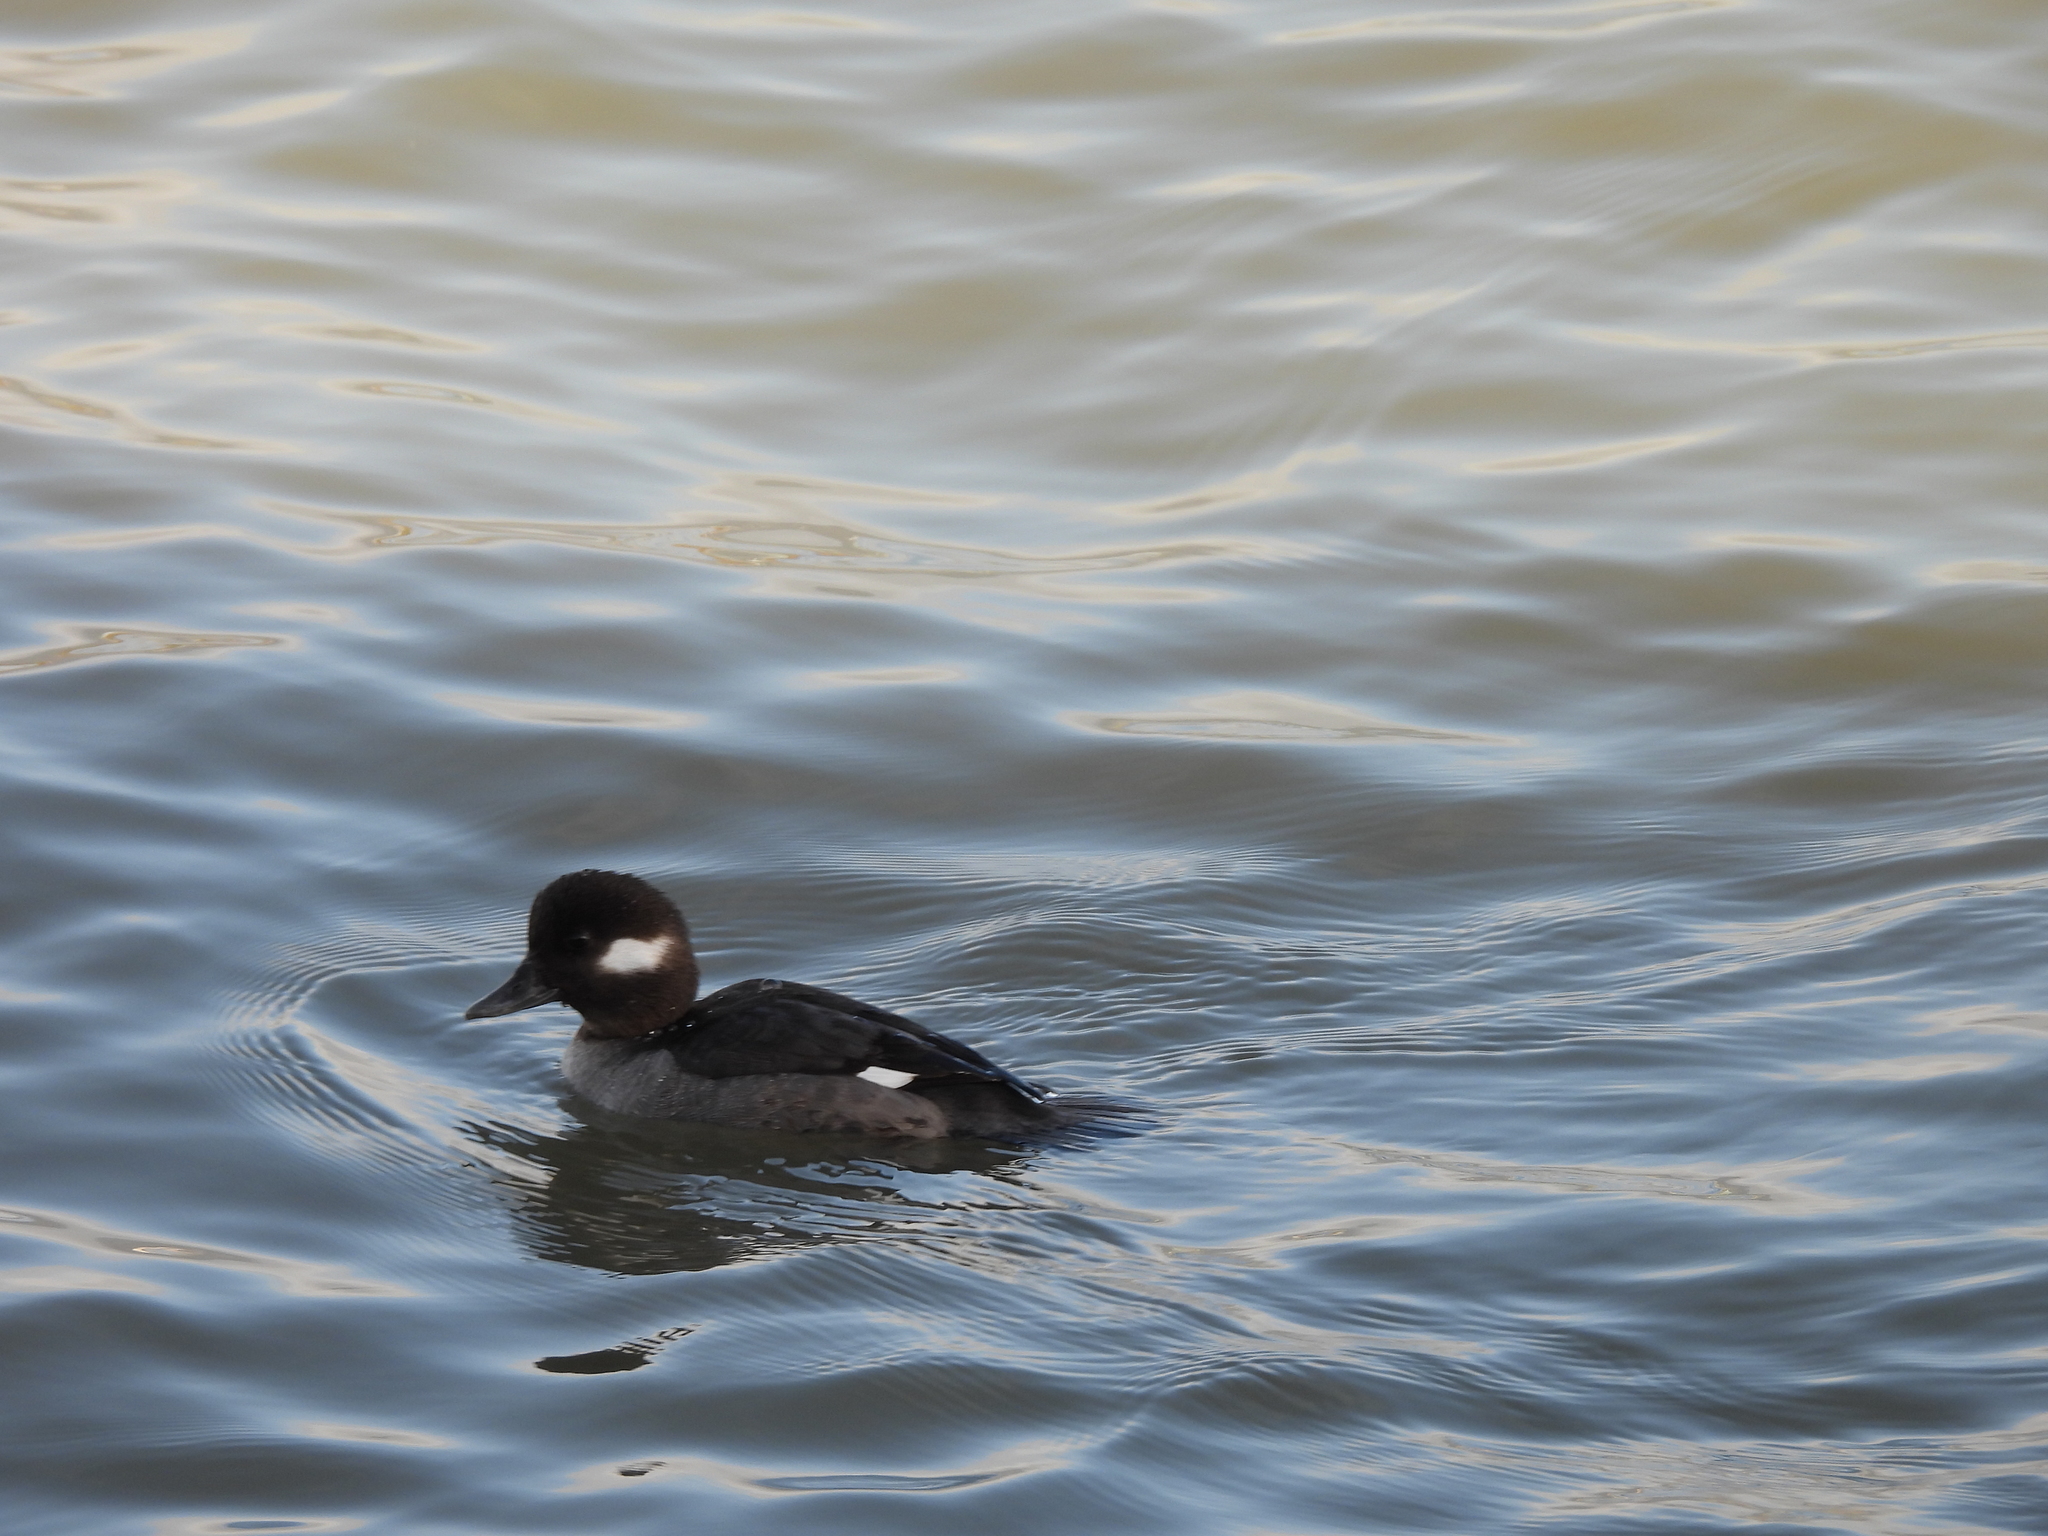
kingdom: Animalia
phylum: Chordata
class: Aves
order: Anseriformes
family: Anatidae
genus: Bucephala
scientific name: Bucephala albeola
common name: Bufflehead
